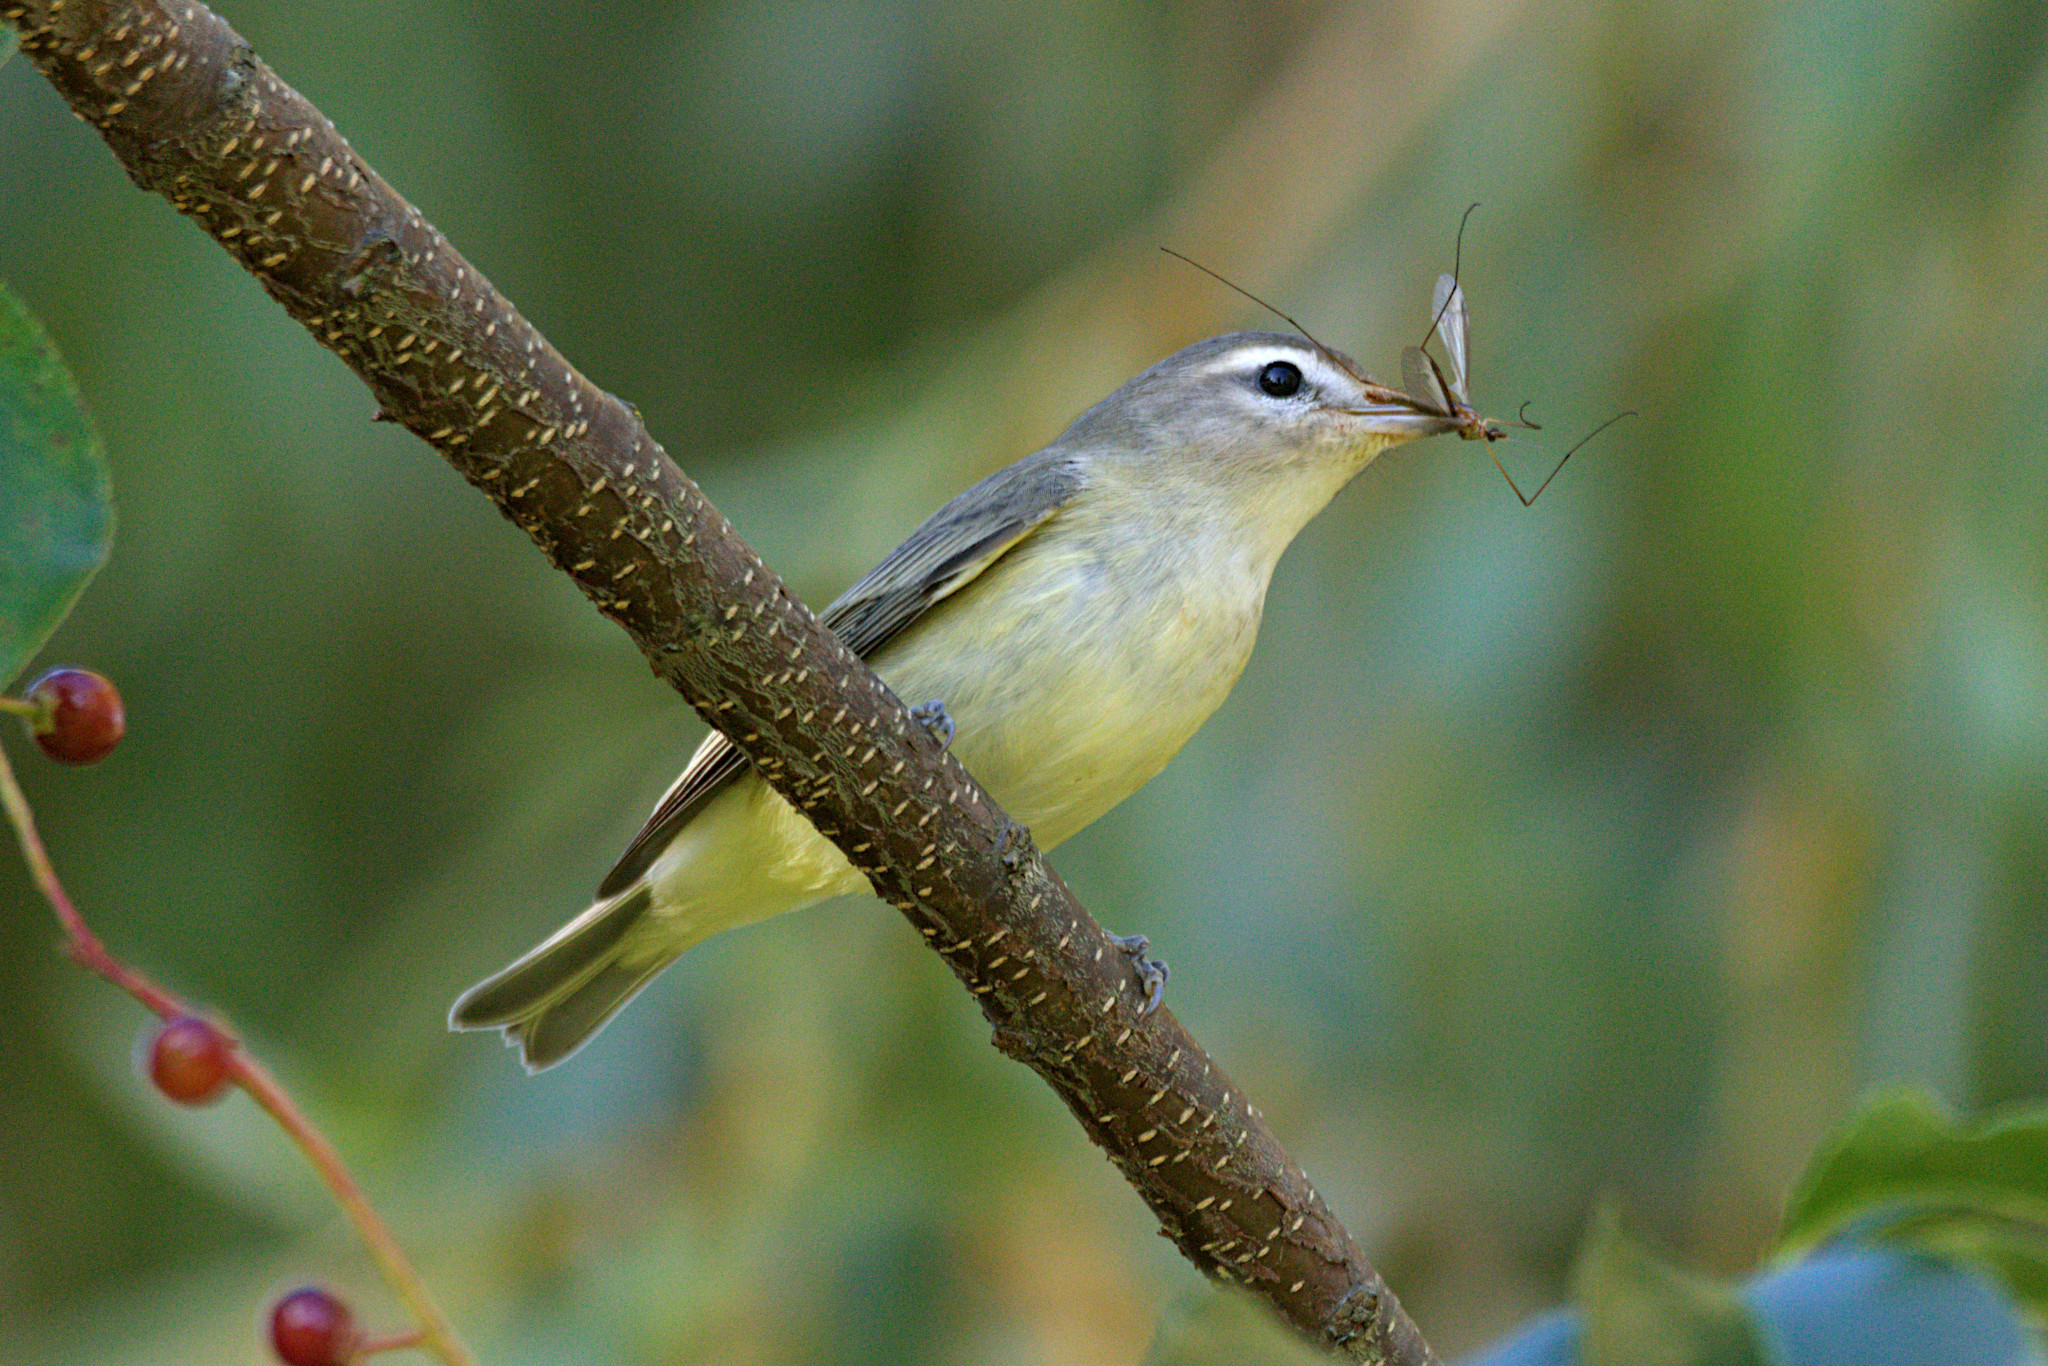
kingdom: Animalia
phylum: Chordata
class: Aves
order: Passeriformes
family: Vireonidae
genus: Vireo
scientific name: Vireo gilvus
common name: Warbling vireo
